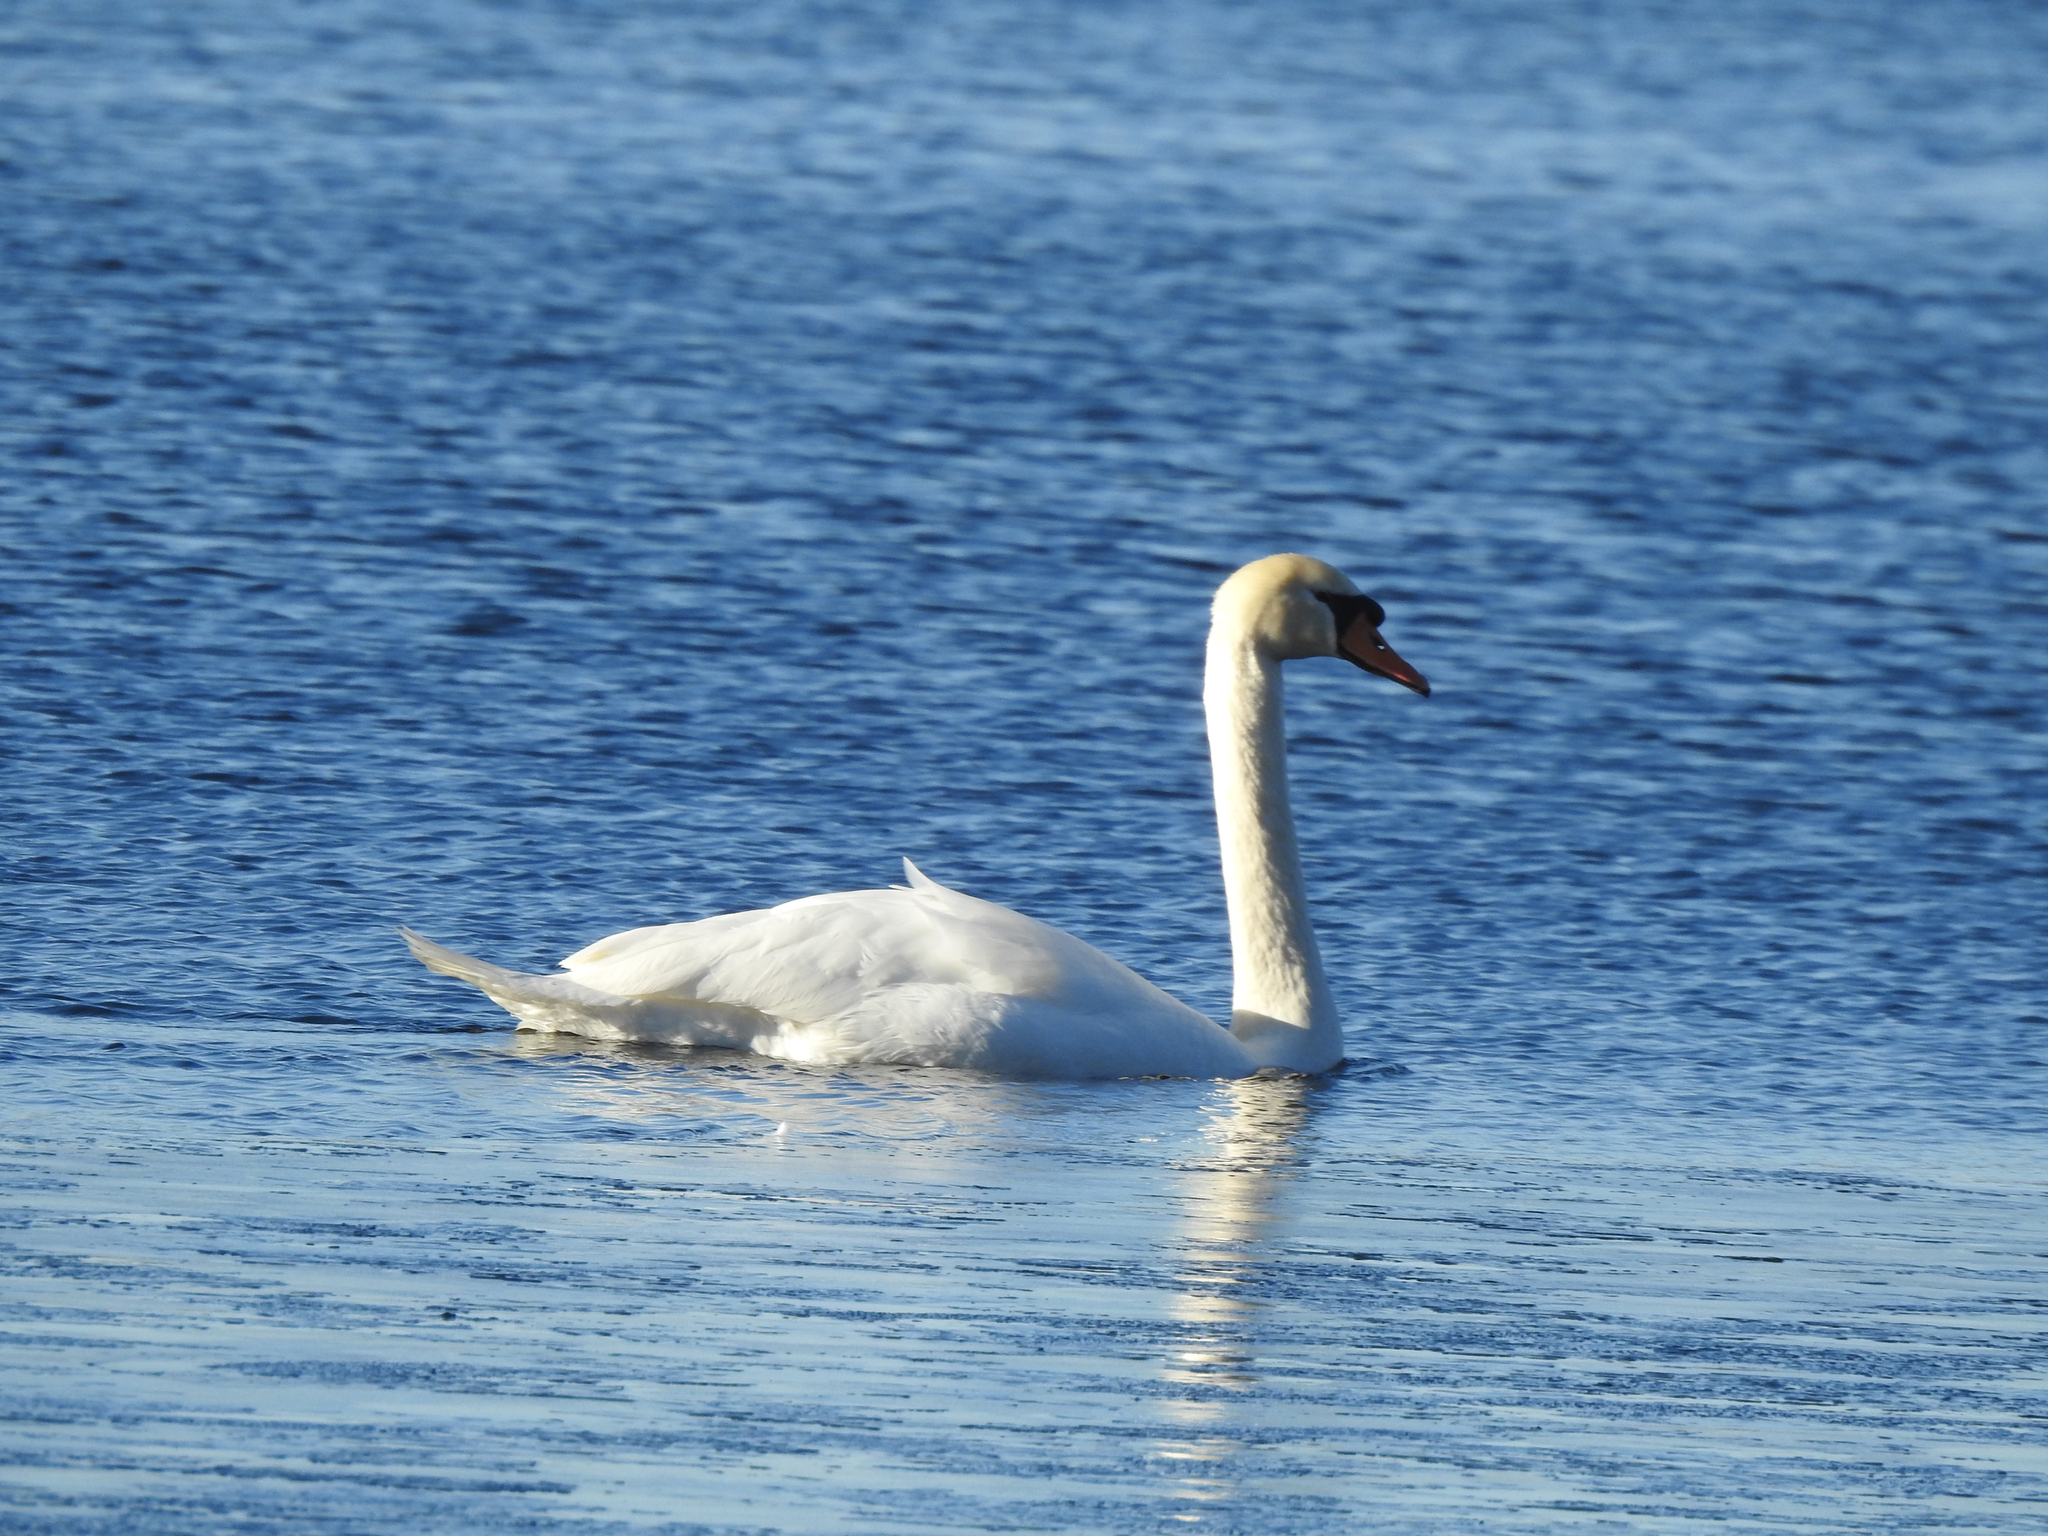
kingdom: Animalia
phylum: Chordata
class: Aves
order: Anseriformes
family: Anatidae
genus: Cygnus
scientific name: Cygnus olor
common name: Mute swan
